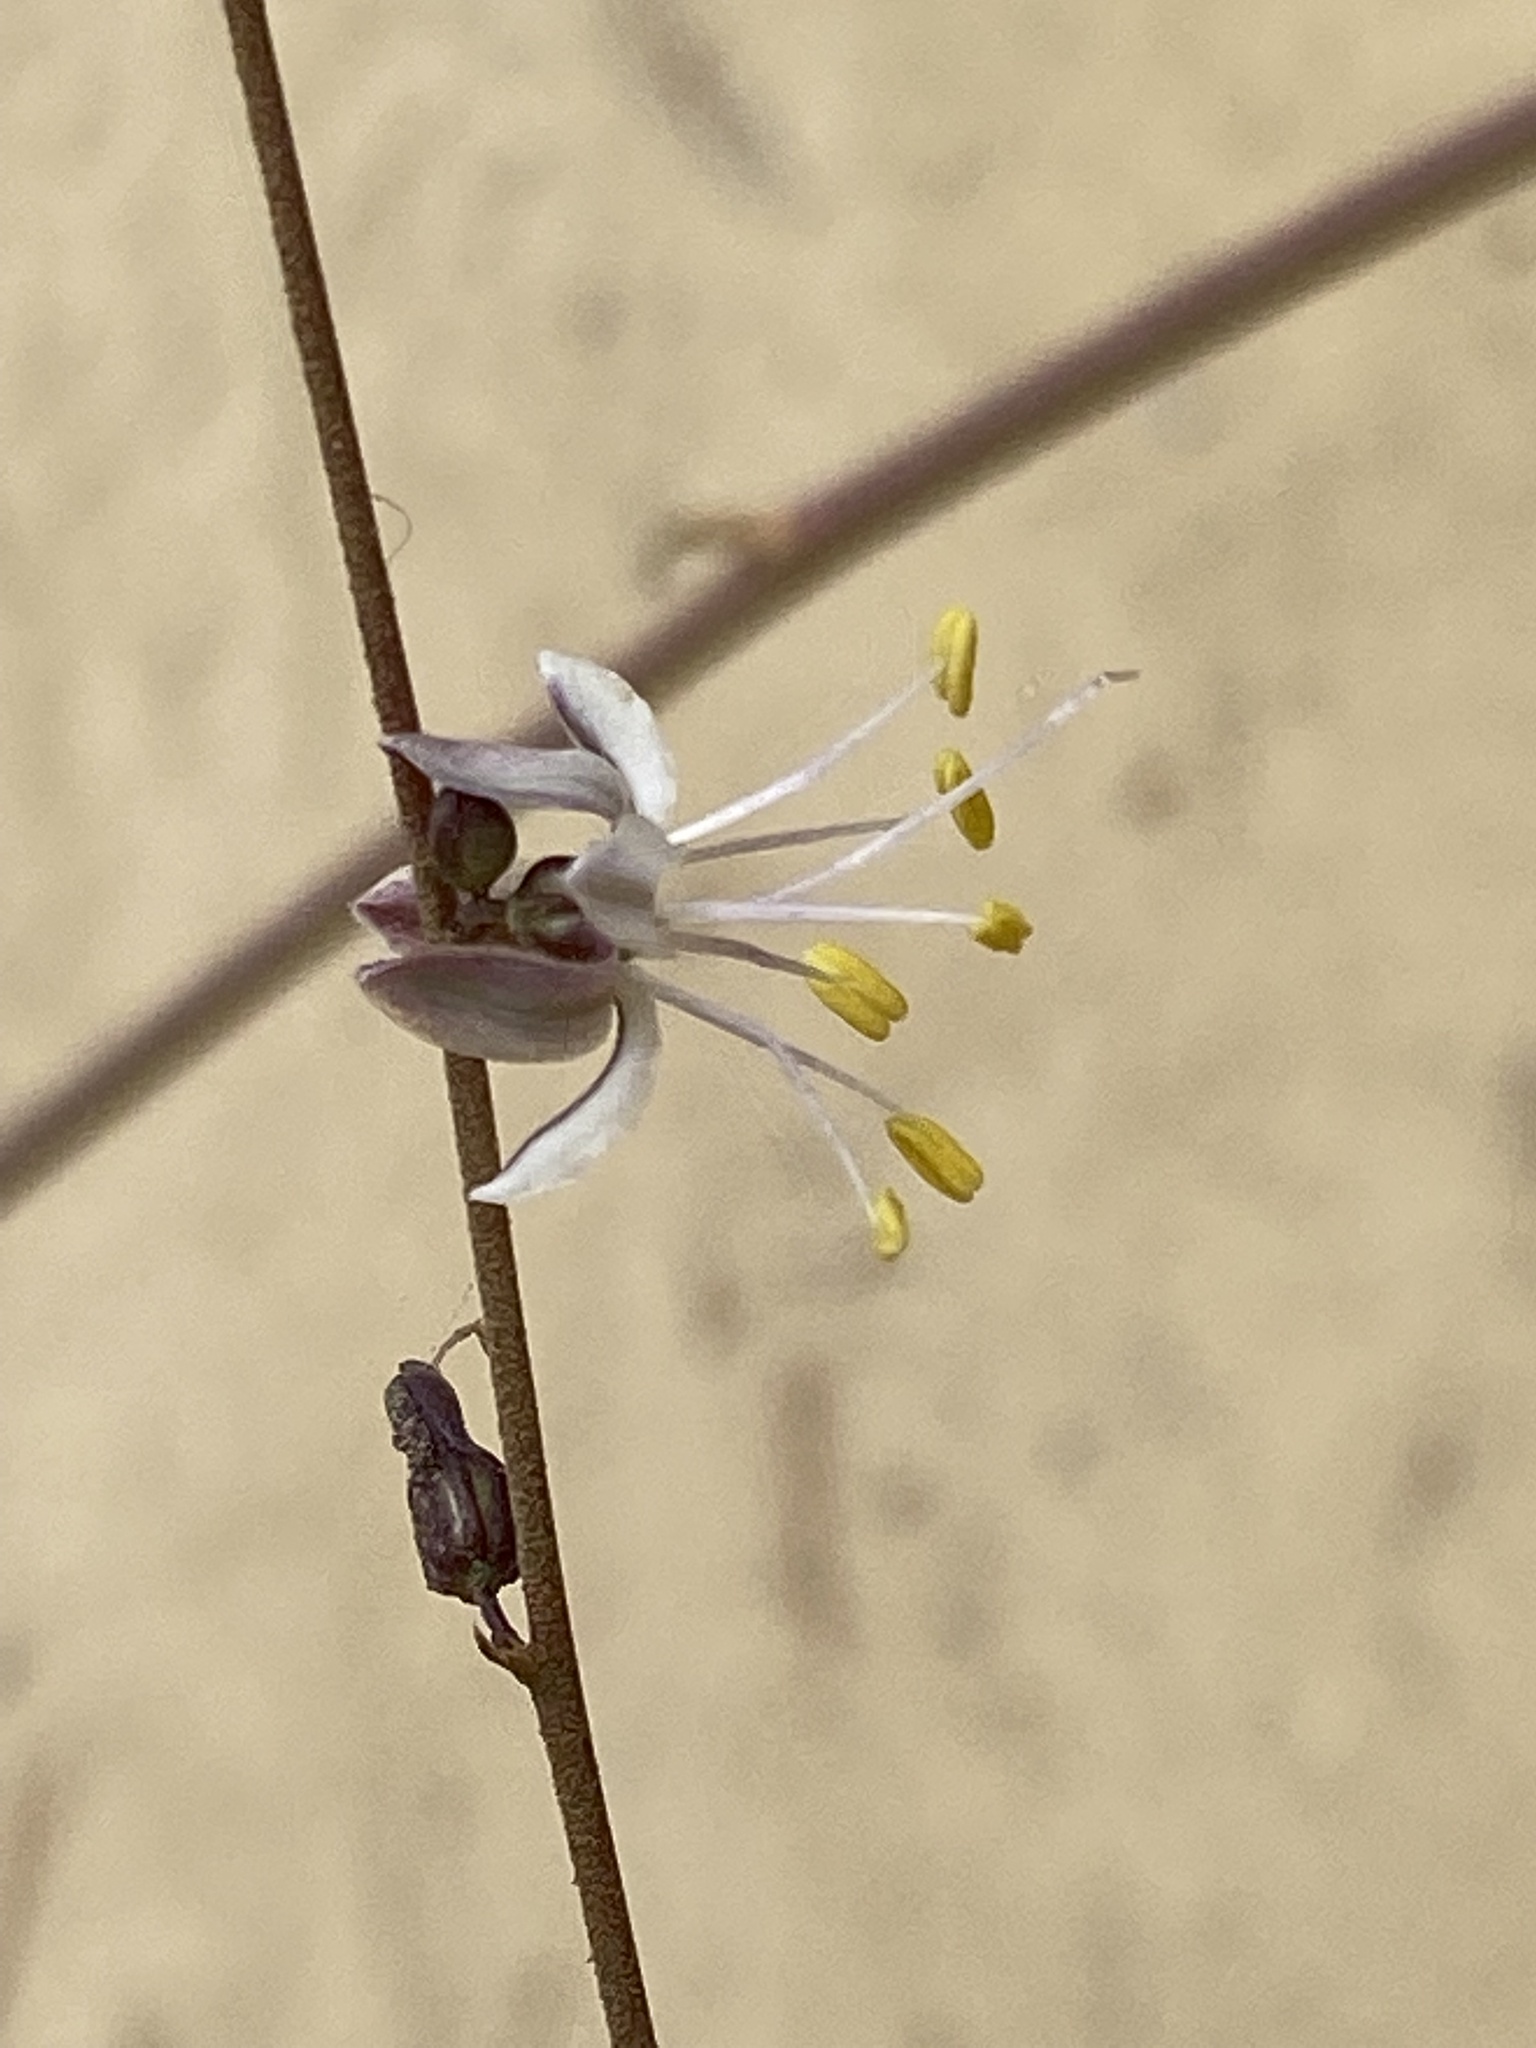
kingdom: Plantae
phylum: Tracheophyta
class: Liliopsida
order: Asparagales
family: Asparagaceae
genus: Hooveria
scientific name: Hooveria parviflora
